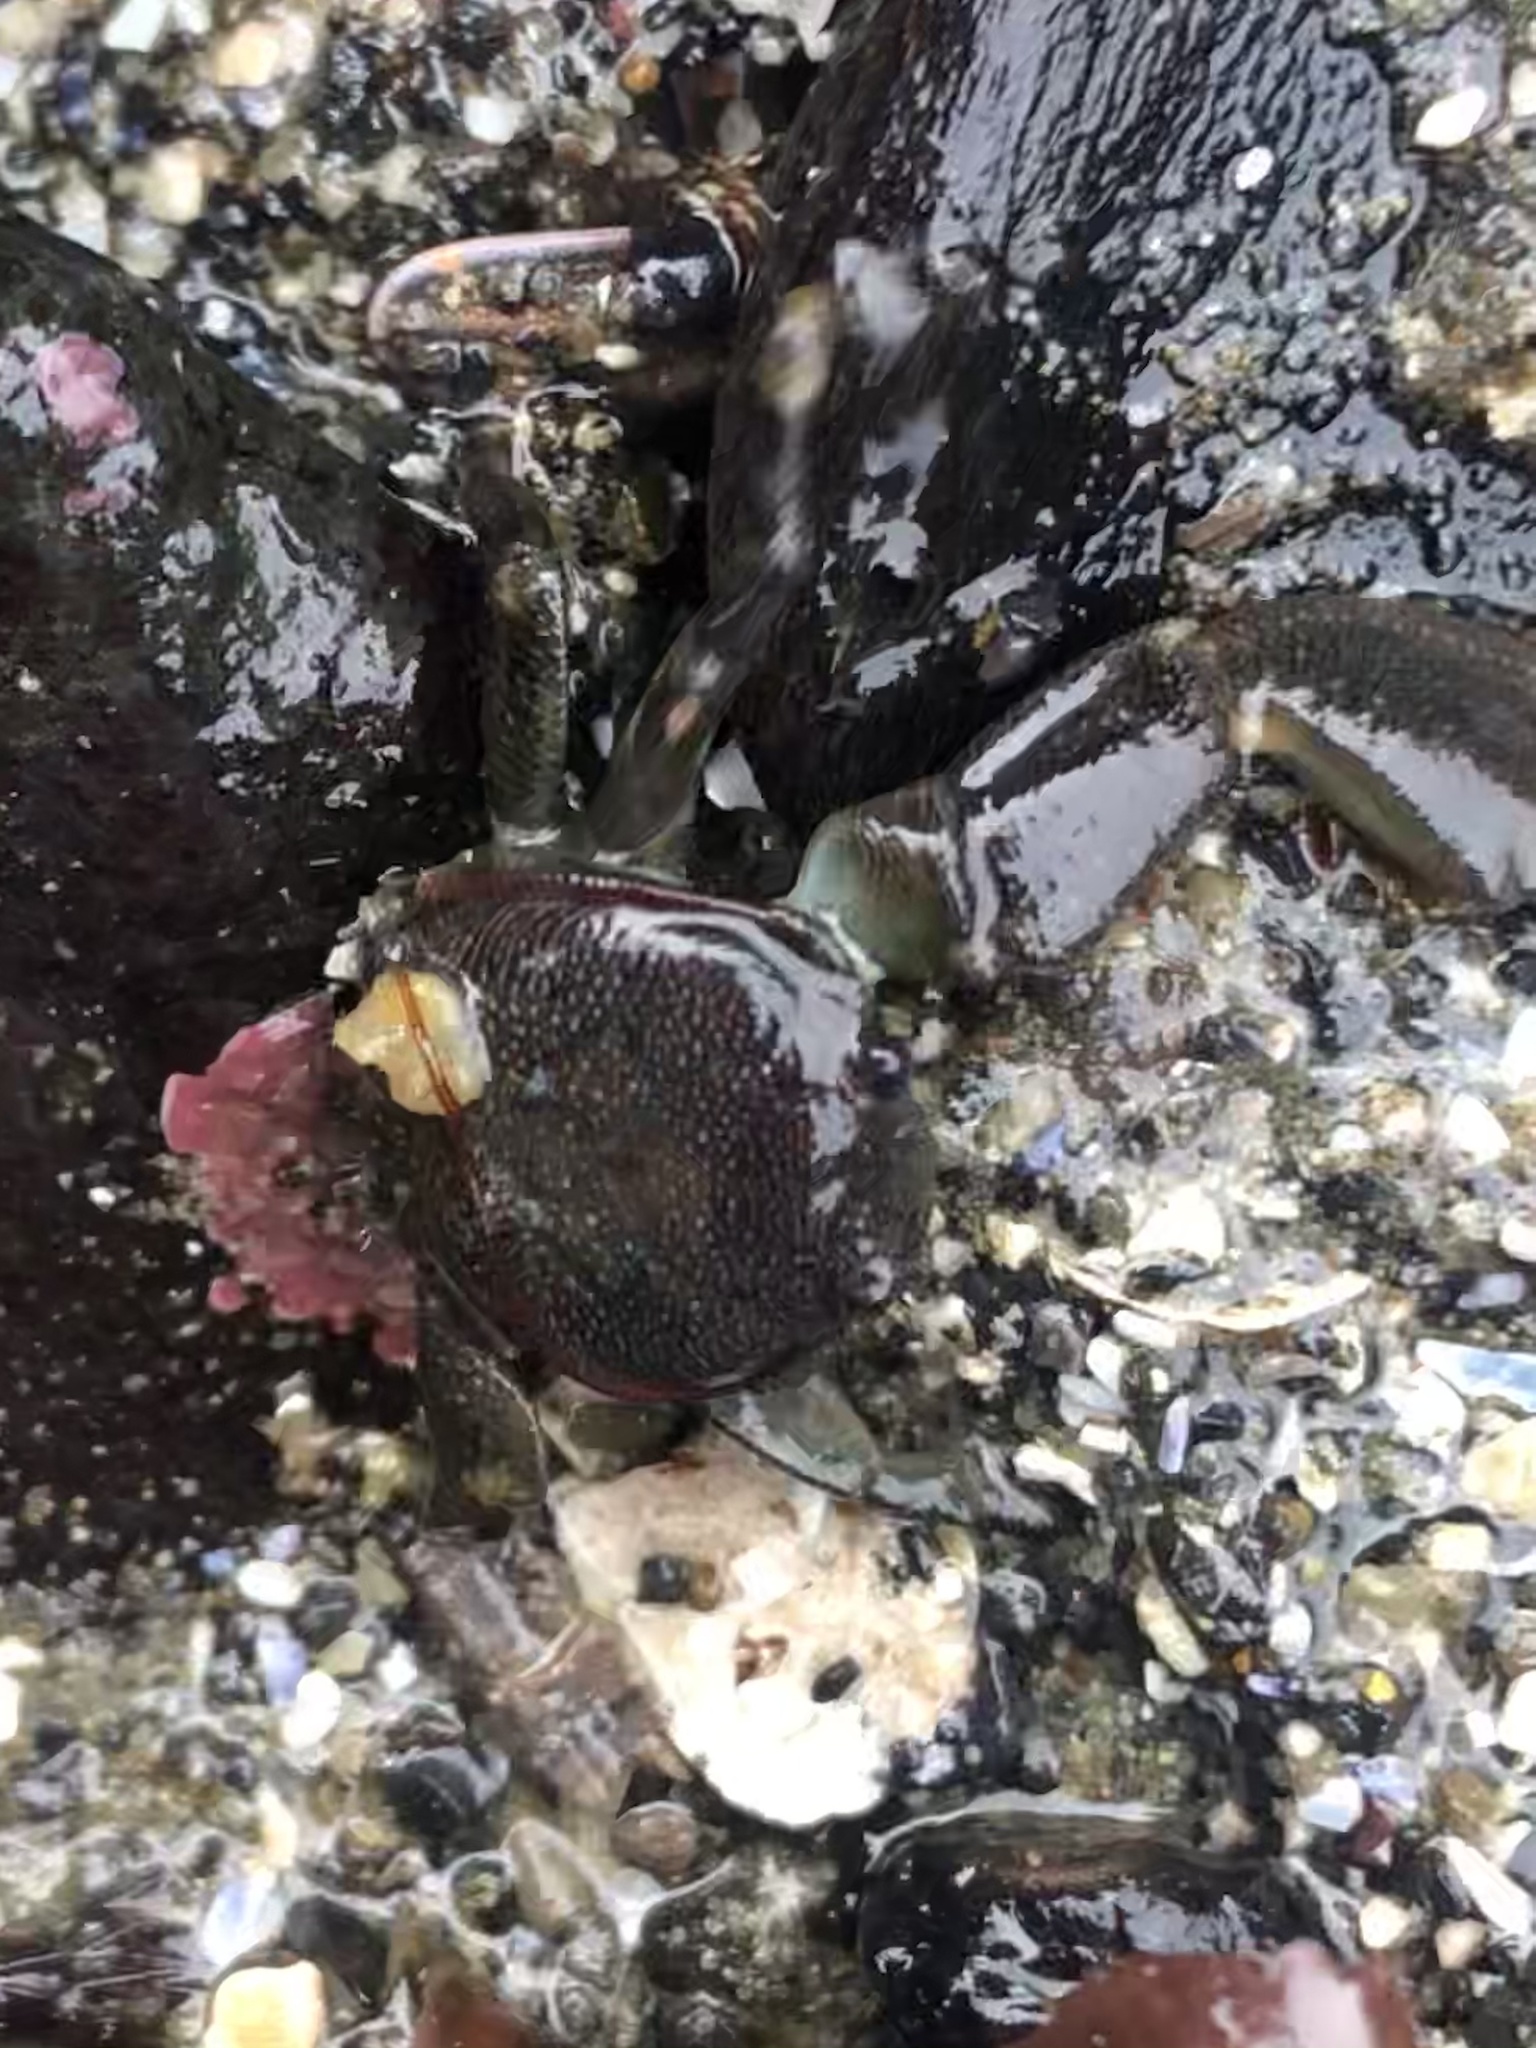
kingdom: Animalia
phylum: Arthropoda
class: Malacostraca
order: Decapoda
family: Porcellanidae
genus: Petrolisthes
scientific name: Petrolisthes cinctipes
